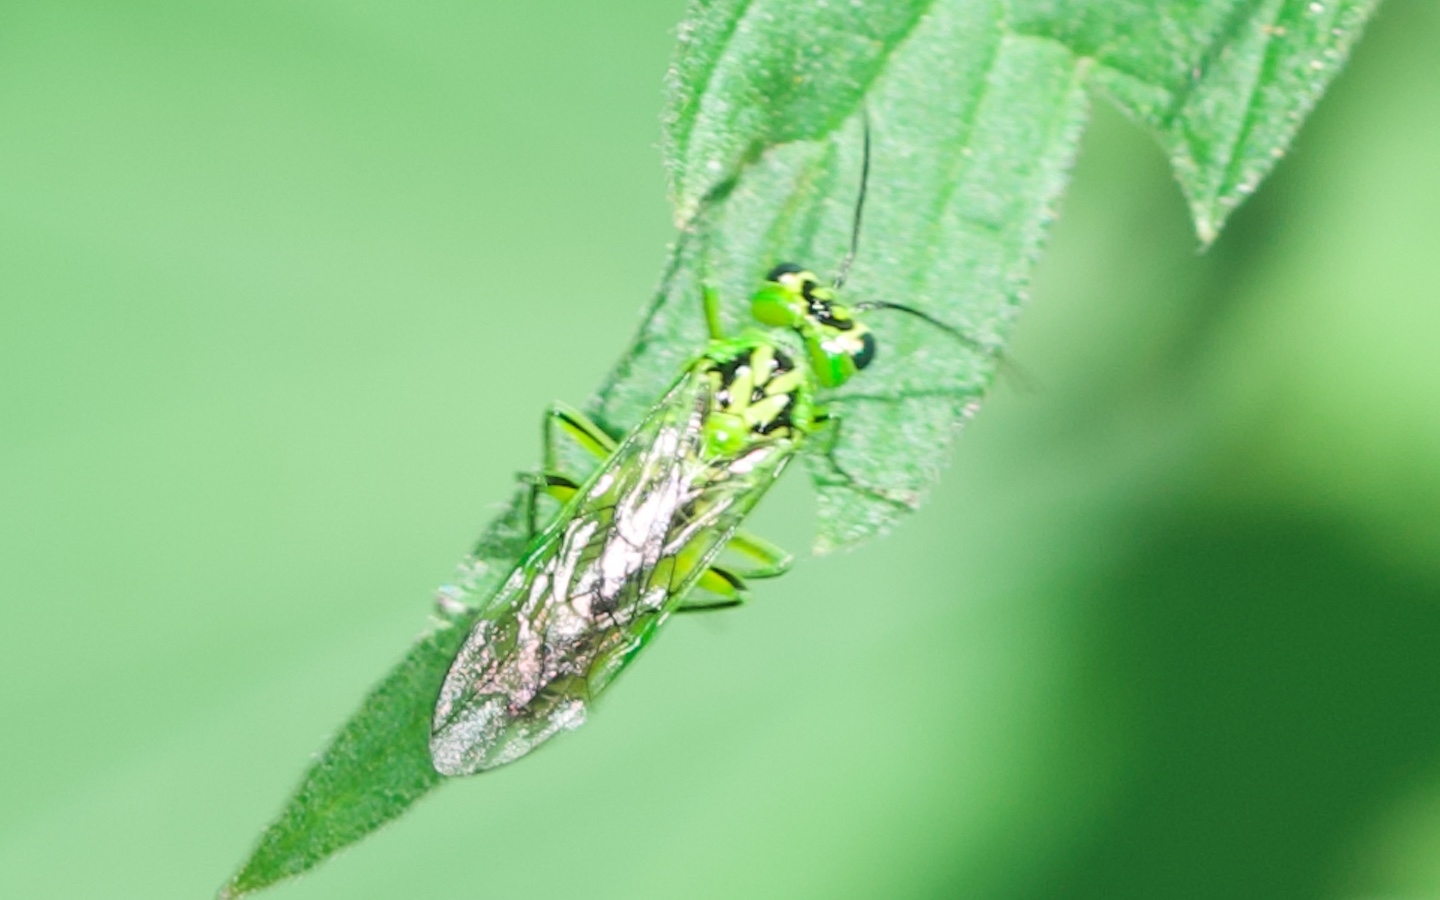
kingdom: Animalia
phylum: Arthropoda
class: Insecta
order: Hymenoptera
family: Tenthredinidae
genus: Rhogogaster
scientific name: Rhogogaster chlorosoma
